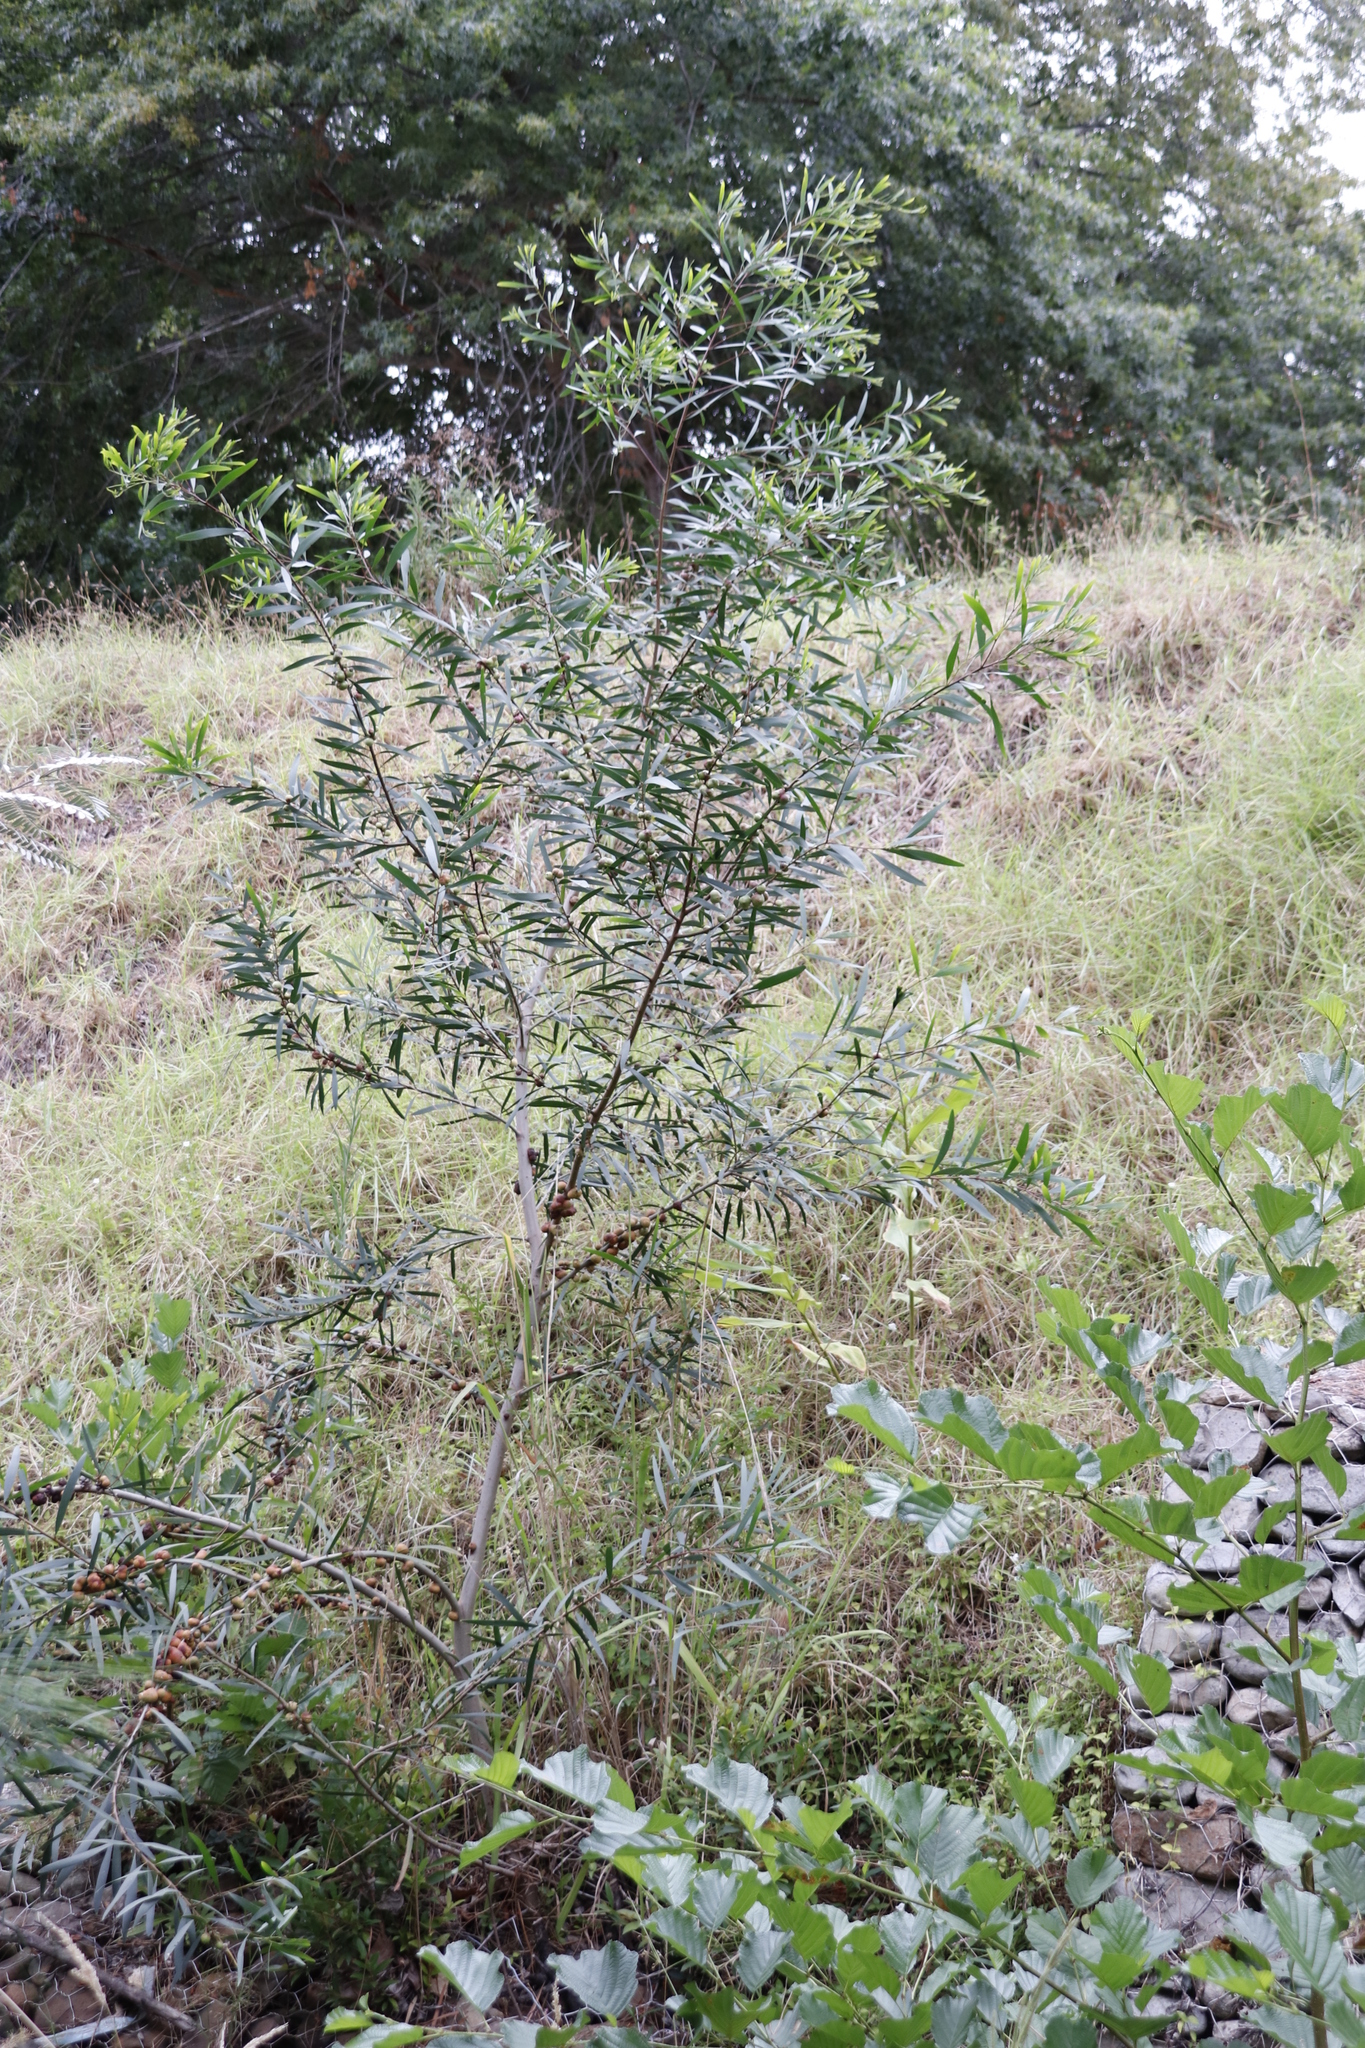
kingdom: Plantae
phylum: Tracheophyta
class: Magnoliopsida
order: Fabales
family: Fabaceae
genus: Acacia
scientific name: Acacia longifolia
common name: Sydney golden wattle
